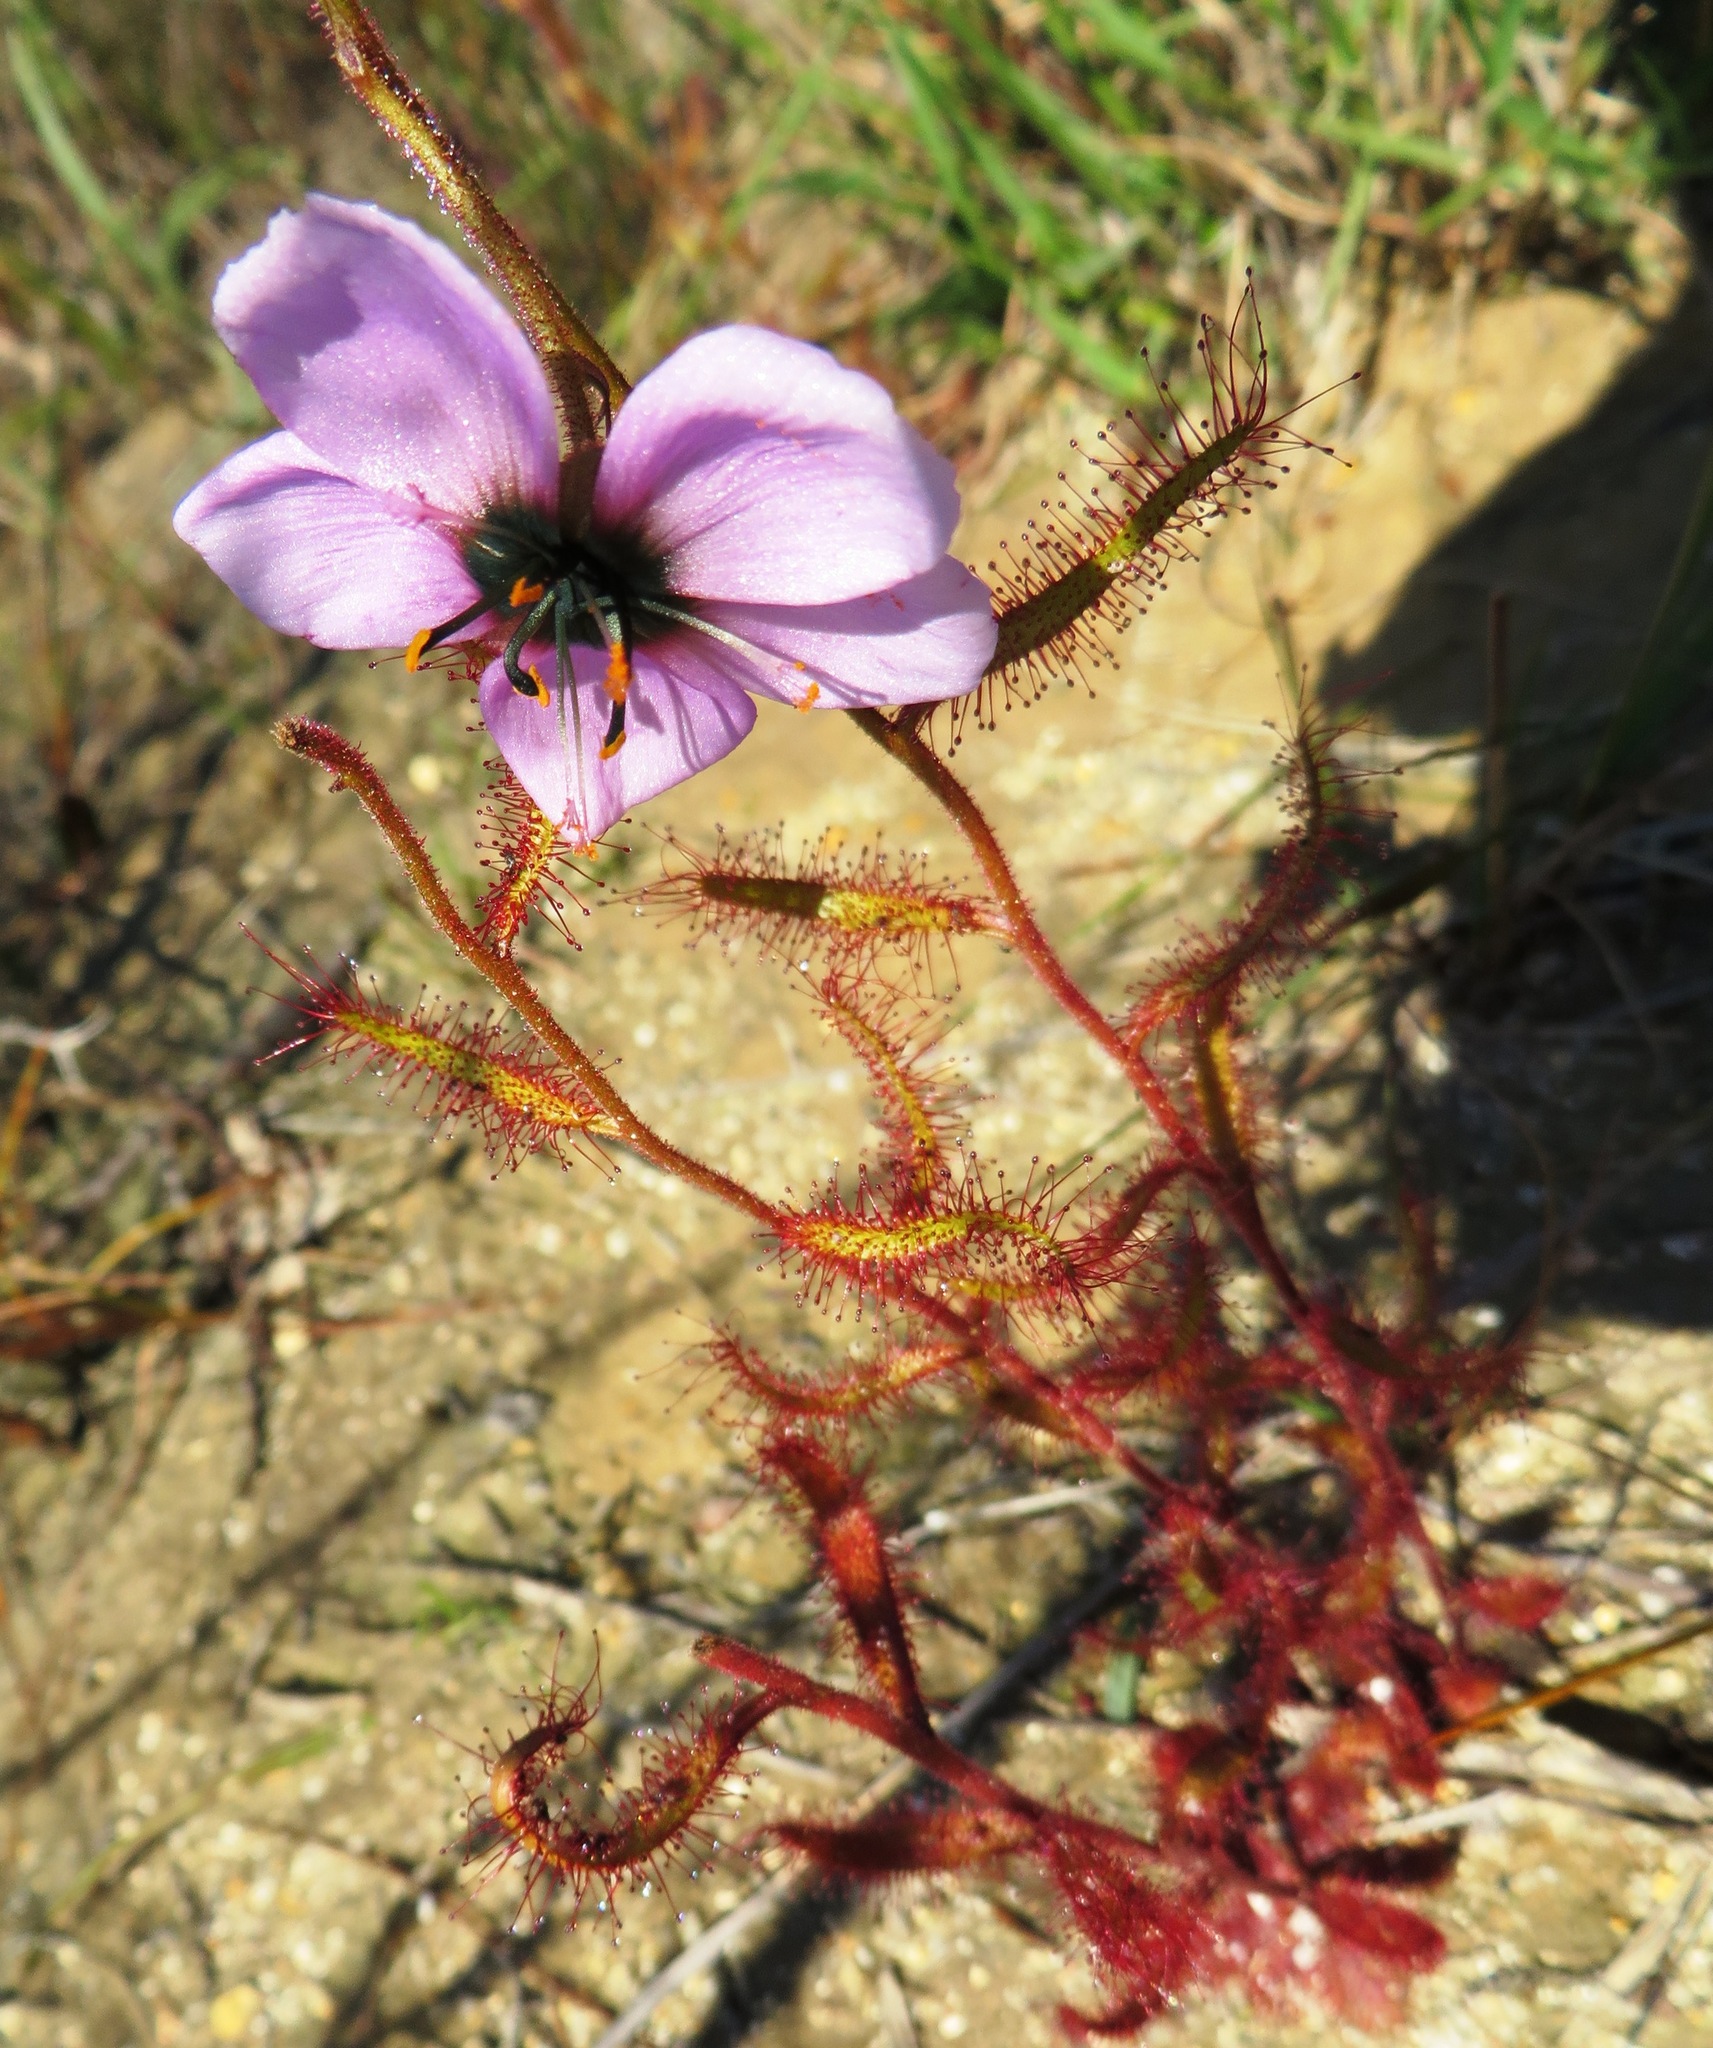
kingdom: Plantae
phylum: Tracheophyta
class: Magnoliopsida
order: Caryophyllales
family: Droseraceae
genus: Drosera
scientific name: Drosera cistiflora
